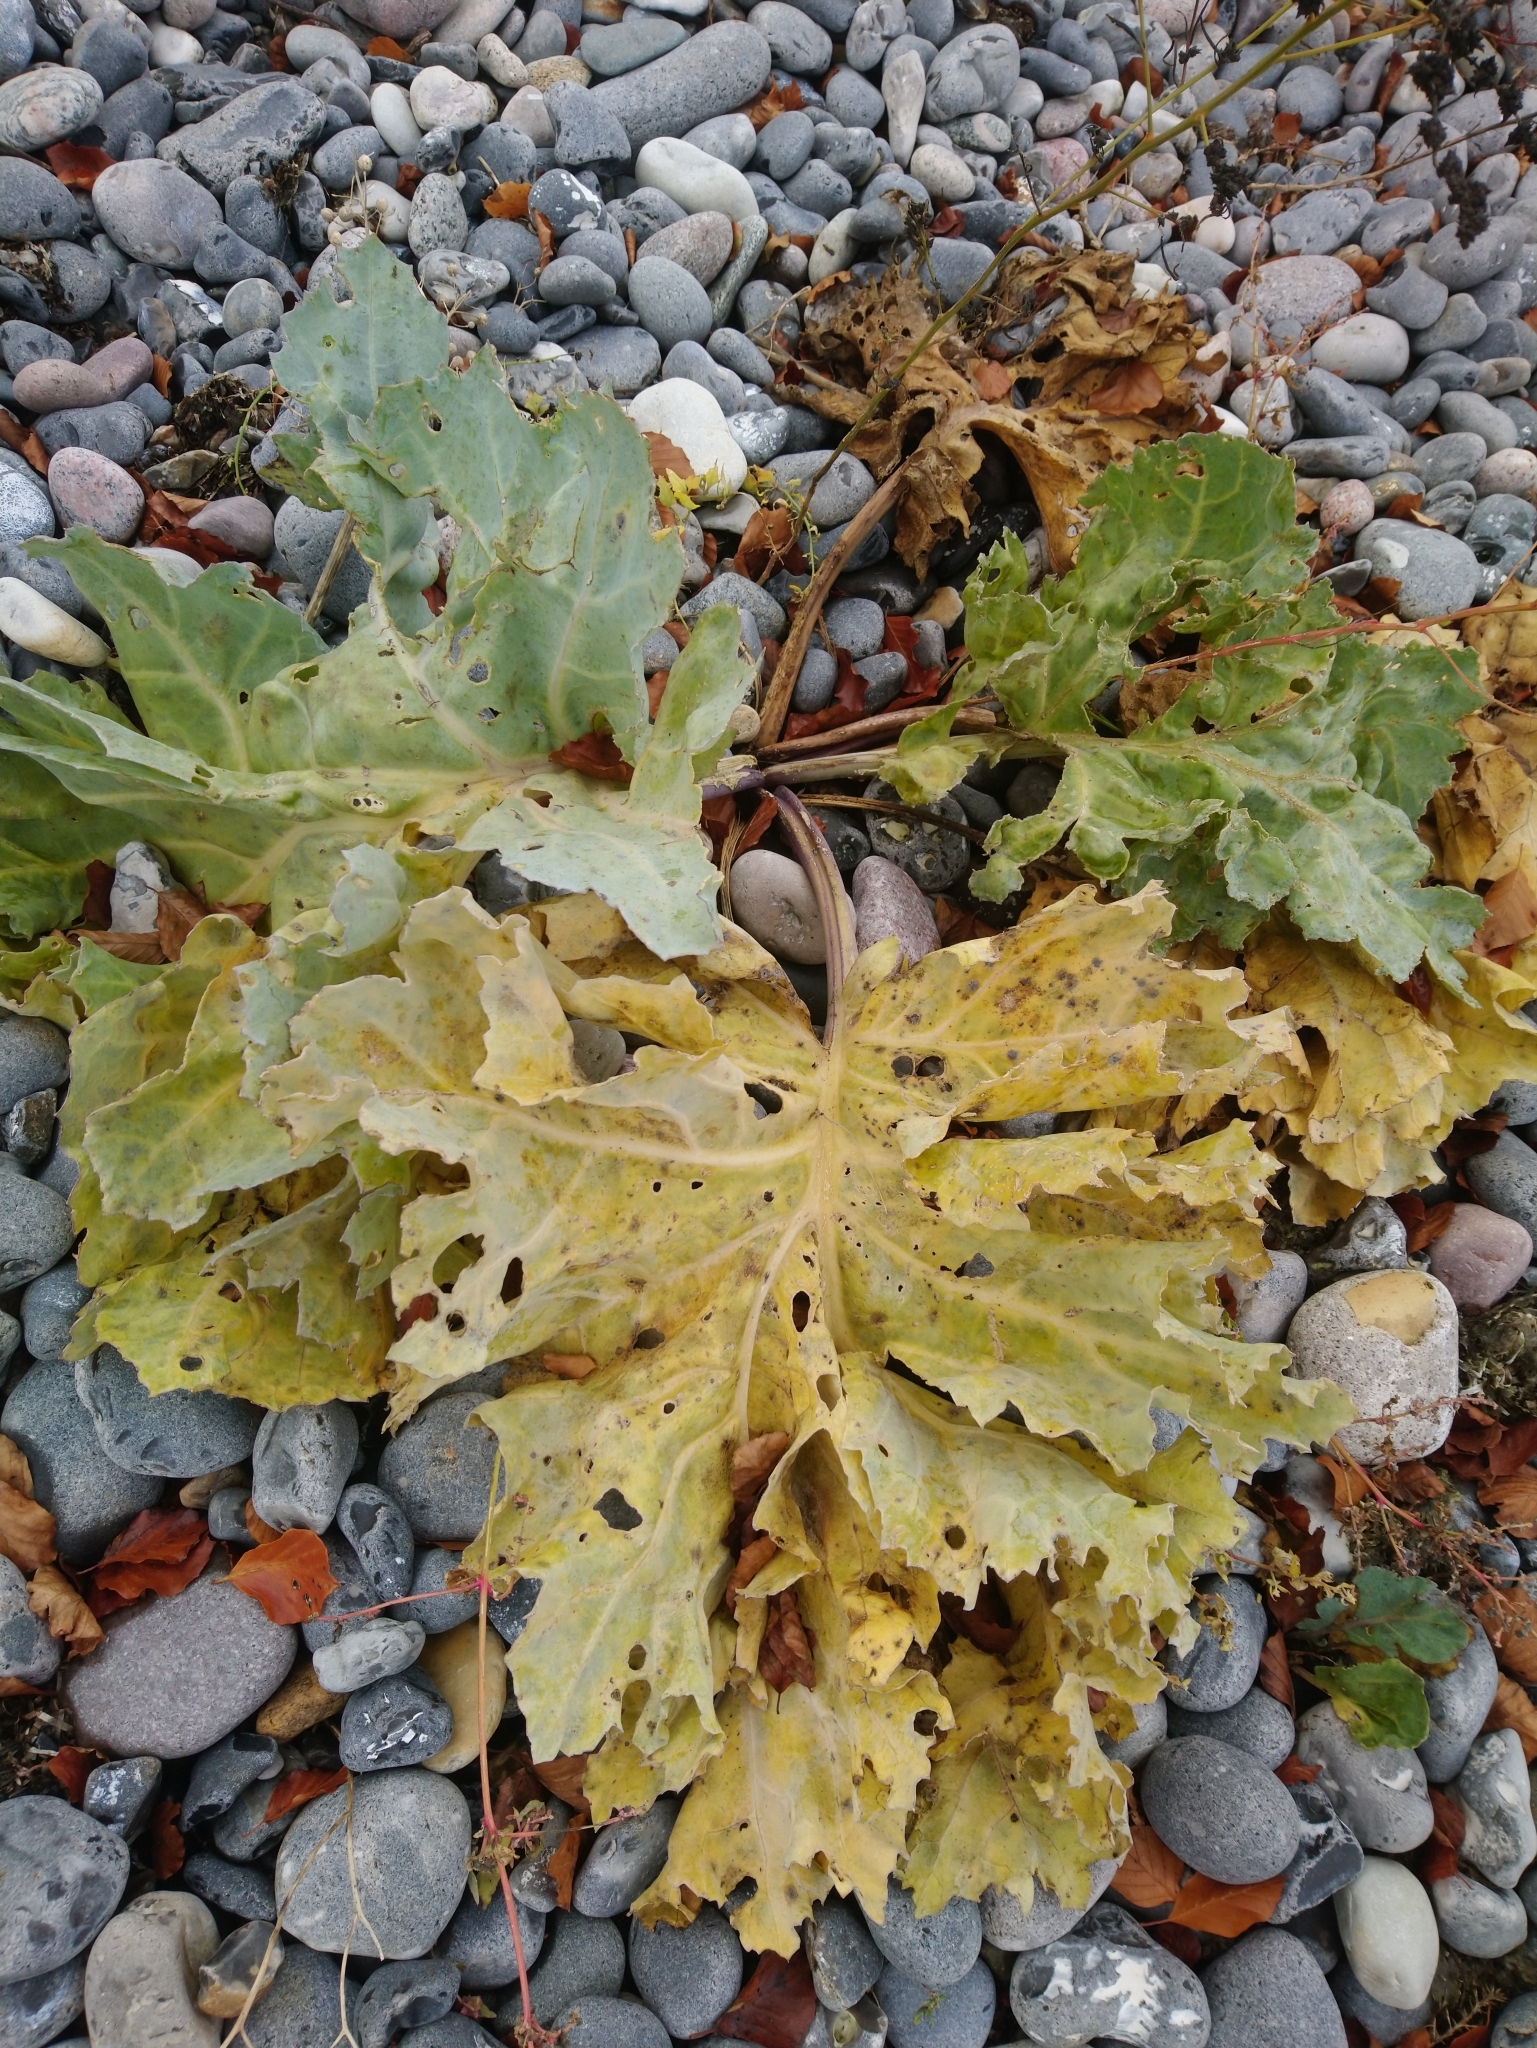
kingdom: Plantae
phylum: Tracheophyta
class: Magnoliopsida
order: Brassicales
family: Brassicaceae
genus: Crambe
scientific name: Crambe maritima
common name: Sea-kale
